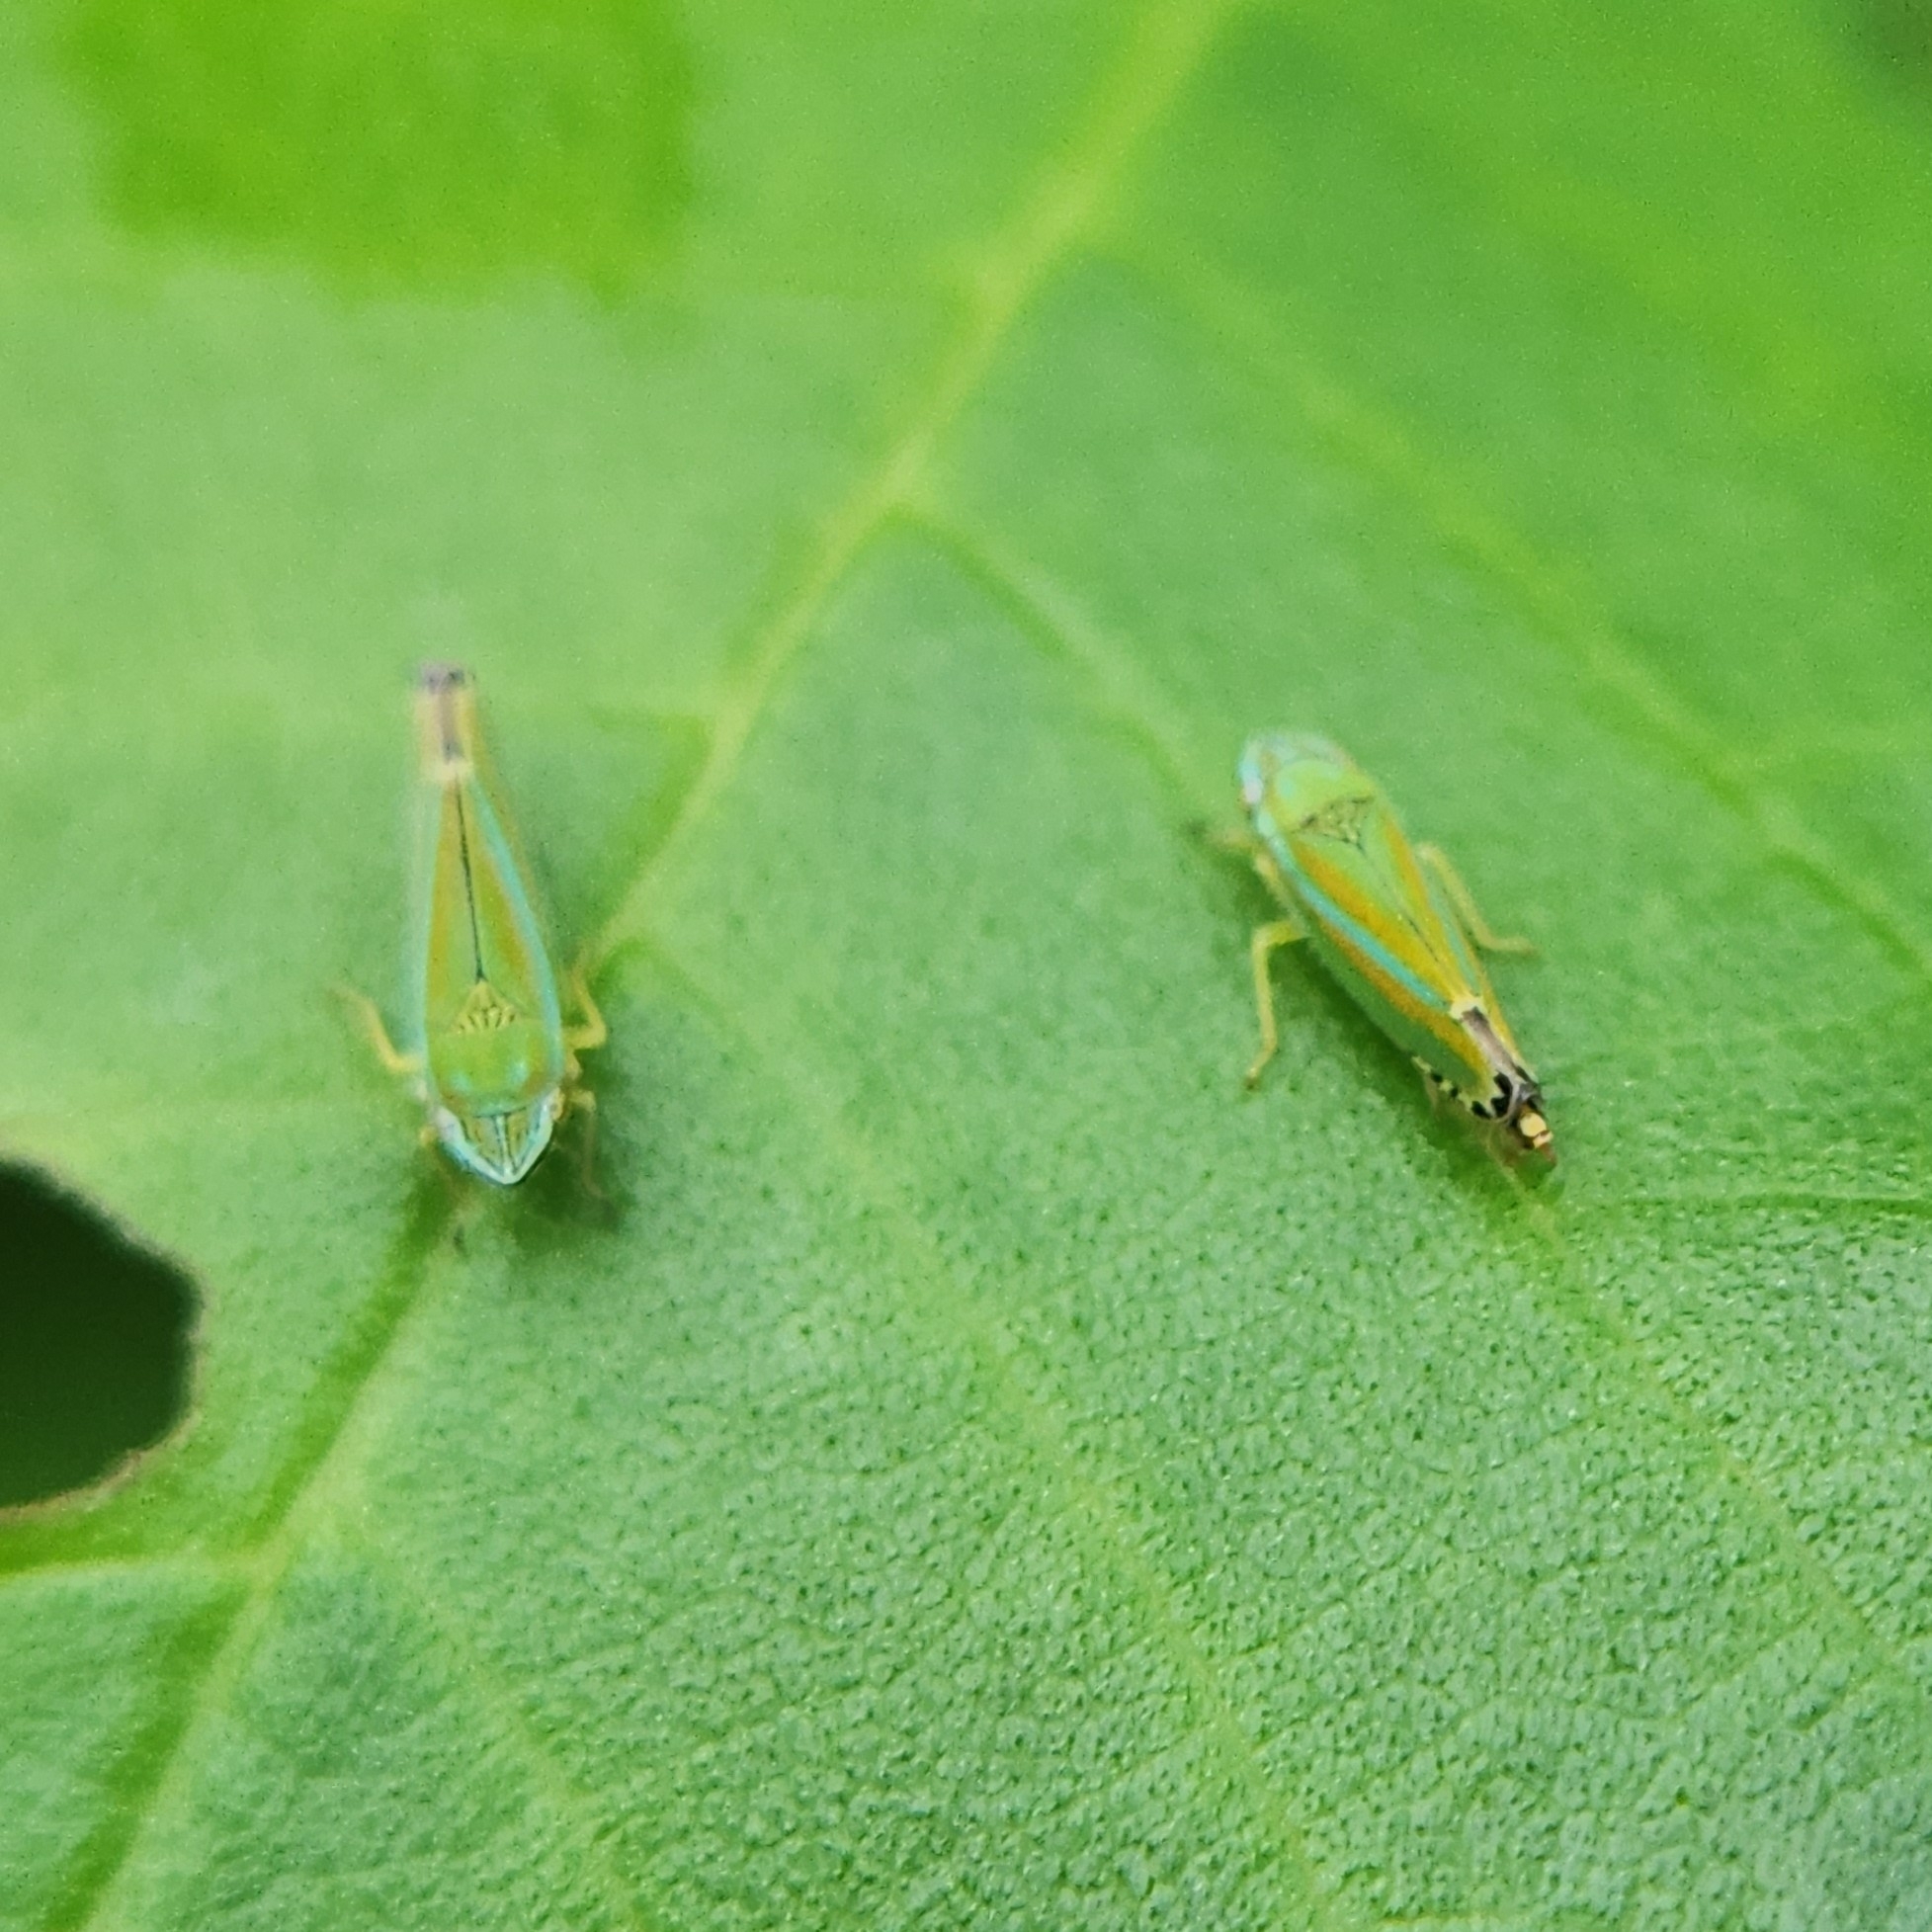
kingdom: Animalia
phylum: Arthropoda
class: Insecta
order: Hemiptera
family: Cicadellidae
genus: Graphocephala
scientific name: Graphocephala versuta
